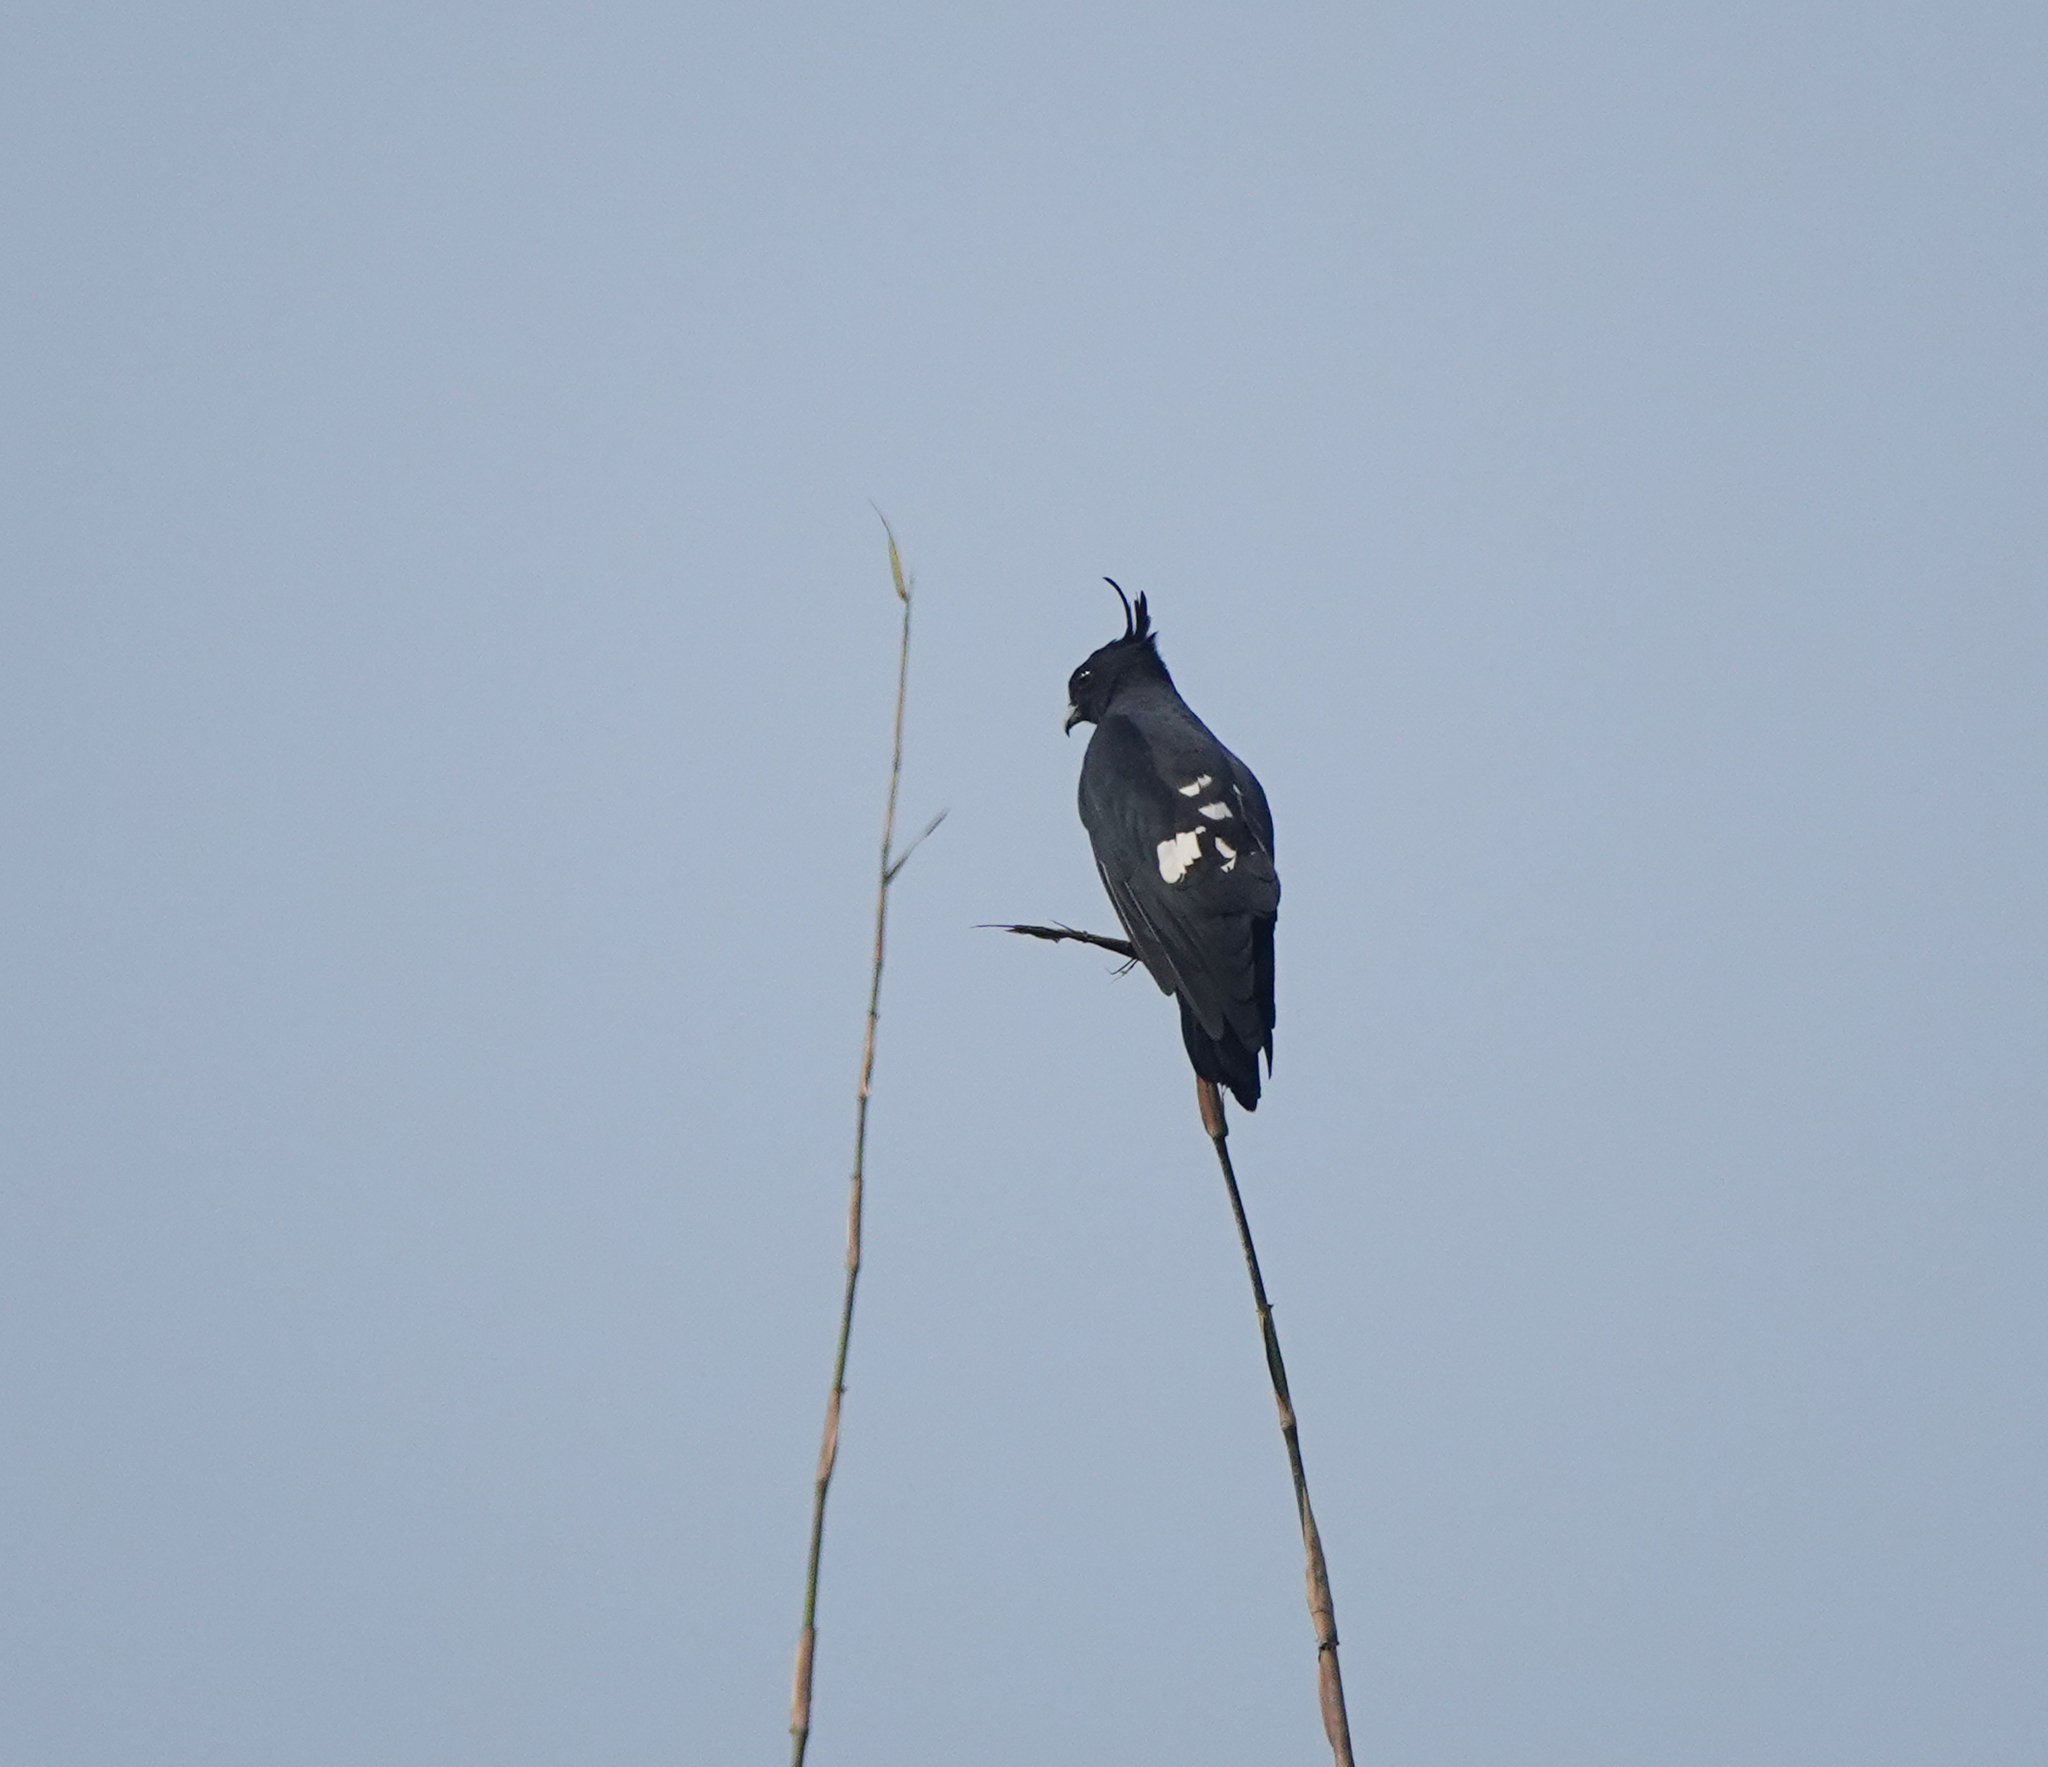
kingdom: Animalia
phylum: Chordata
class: Aves
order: Accipitriformes
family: Accipitridae
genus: Aviceda
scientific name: Aviceda leuphotes
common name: Black baza
